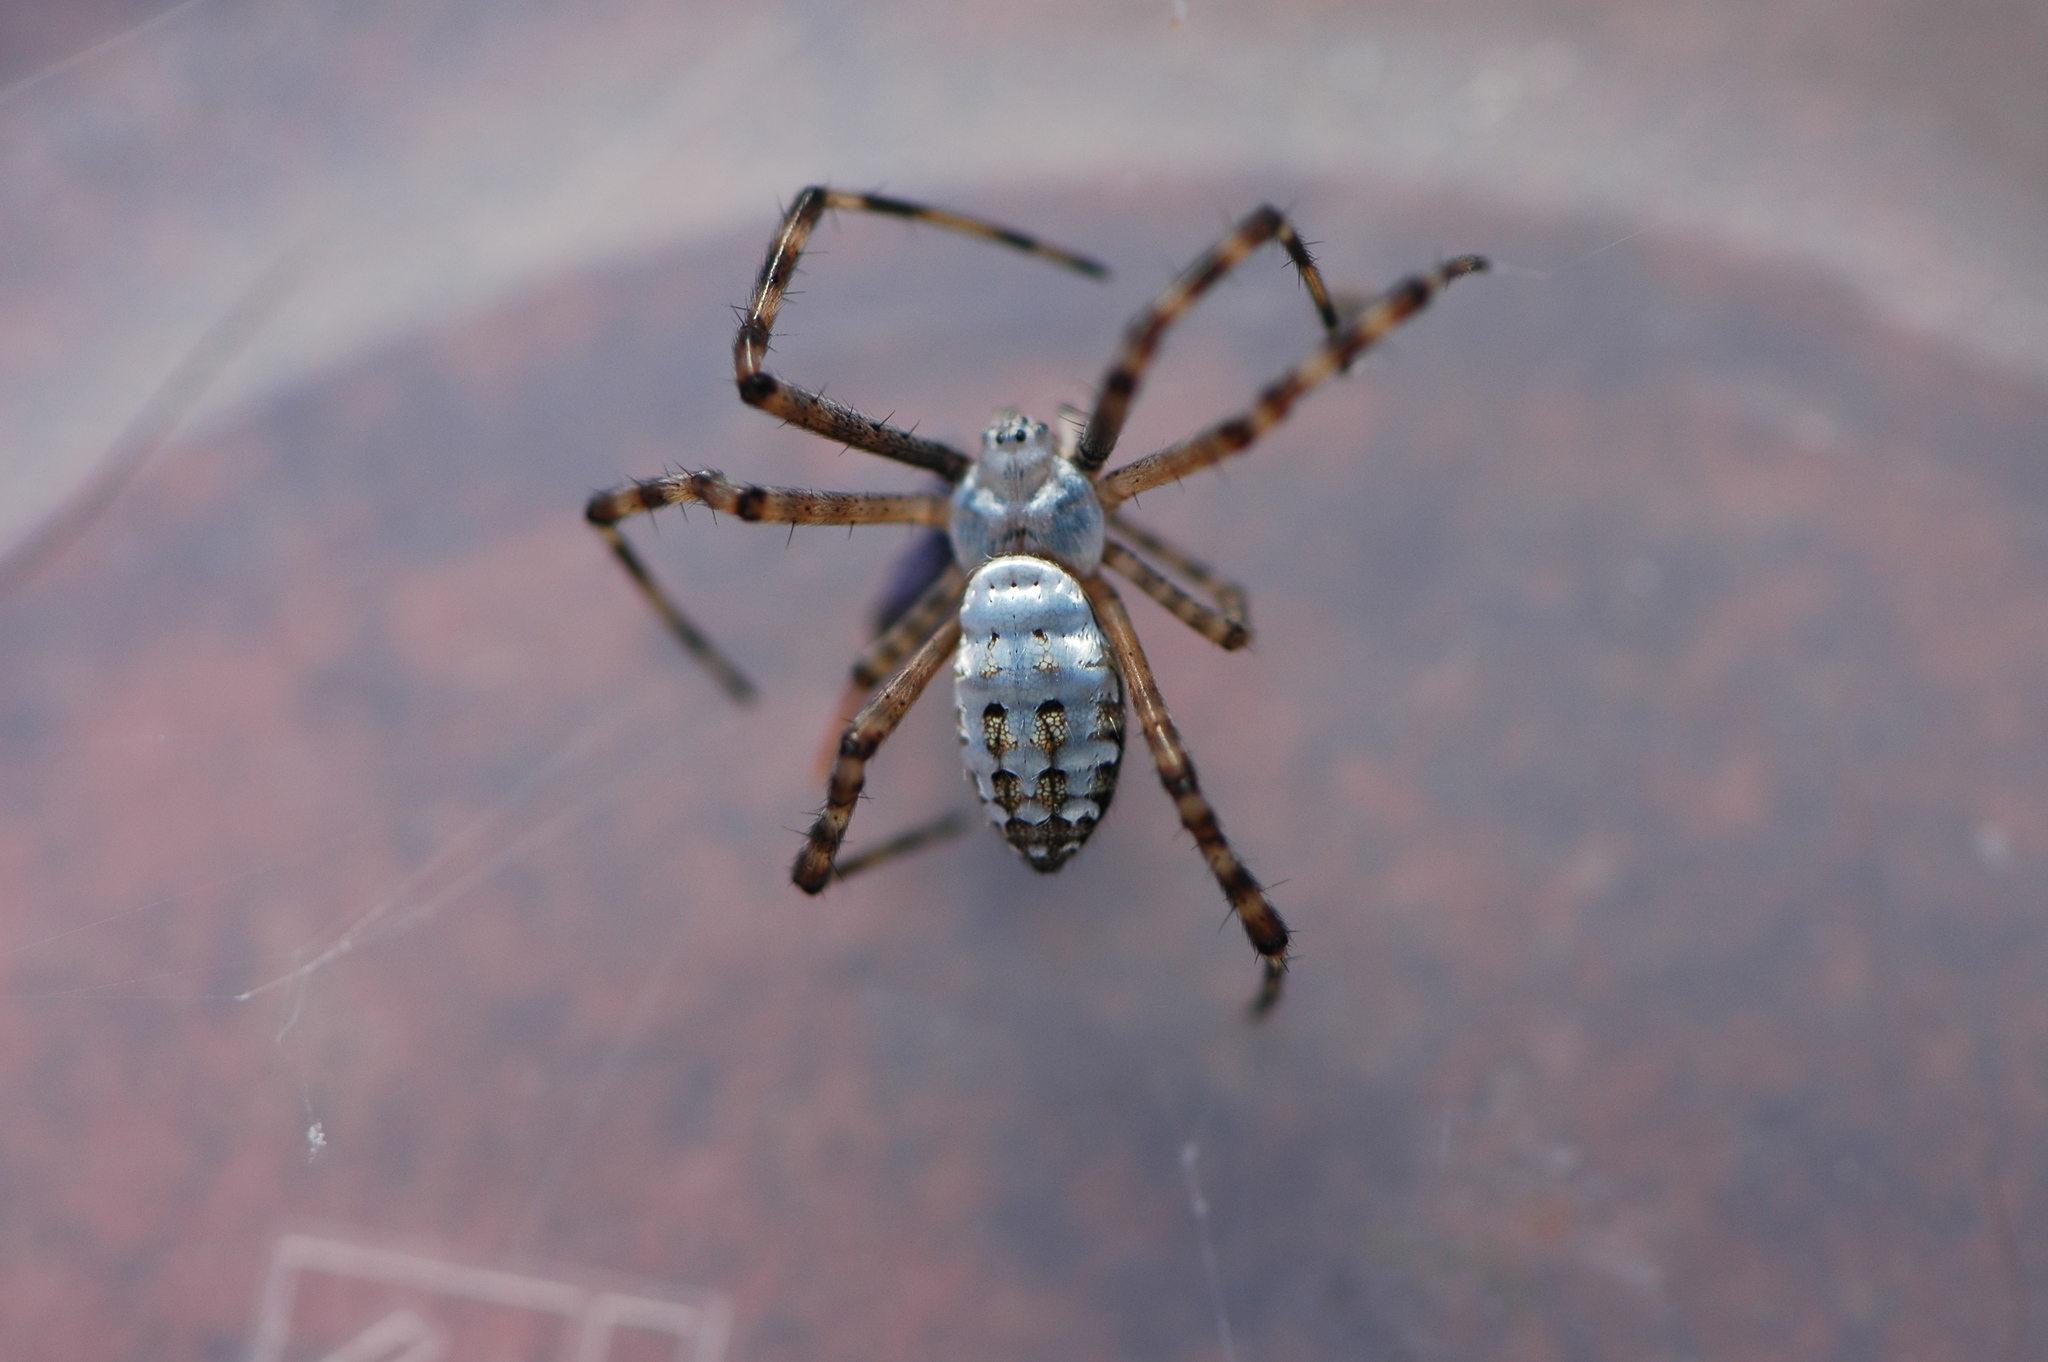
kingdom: Animalia
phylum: Arthropoda
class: Arachnida
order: Araneae
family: Araneidae
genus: Argiope
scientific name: Argiope trifasciata
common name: Banded garden spider
